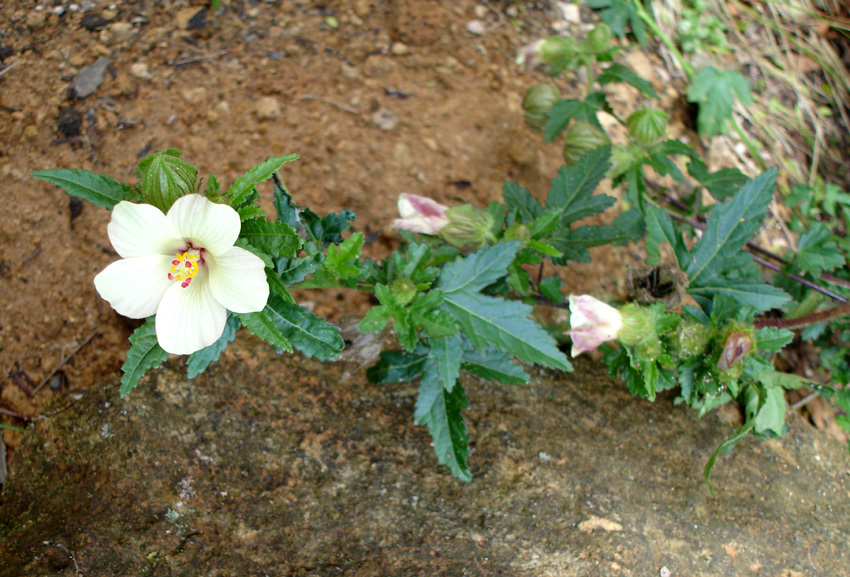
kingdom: Plantae
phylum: Tracheophyta
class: Magnoliopsida
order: Malvales
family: Malvaceae
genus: Hibiscus
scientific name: Hibiscus richardsonii
